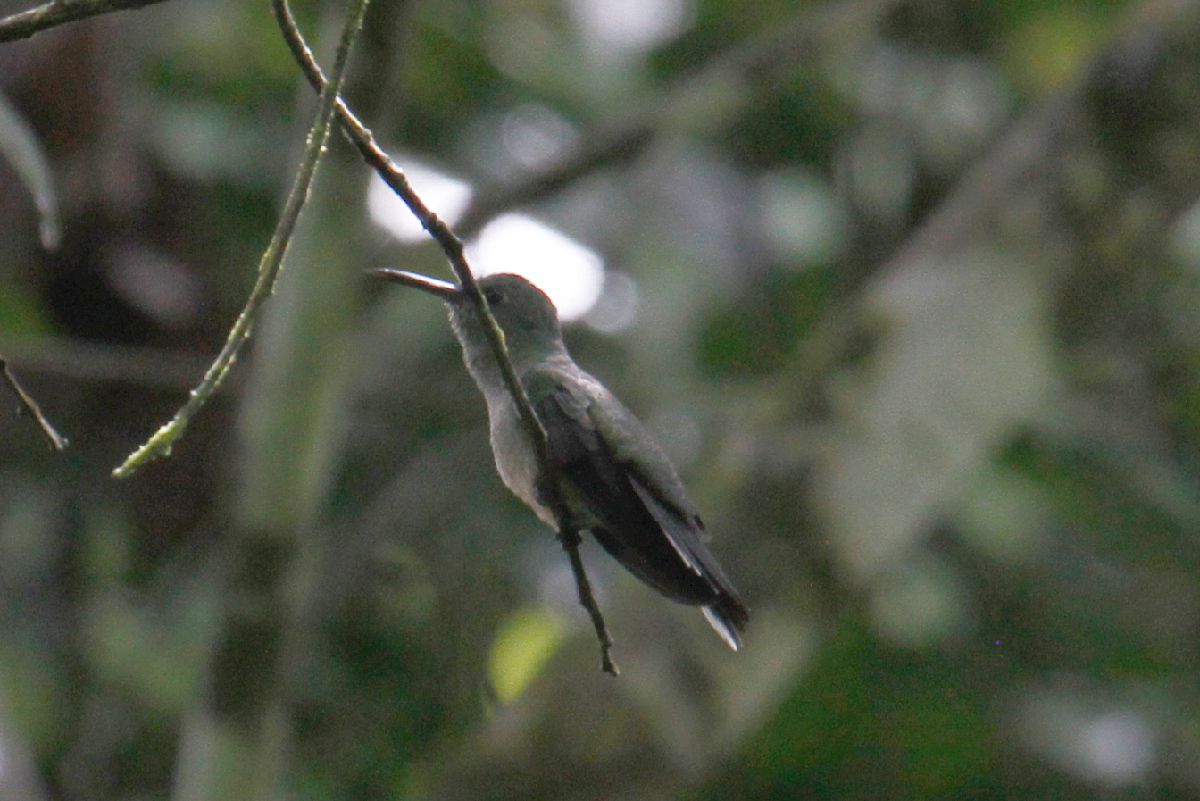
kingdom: Animalia
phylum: Chordata
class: Aves
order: Apodiformes
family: Trochilidae
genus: Phaeochroa
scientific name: Phaeochroa cuvierii
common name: Scaly-breasted hummingbird
